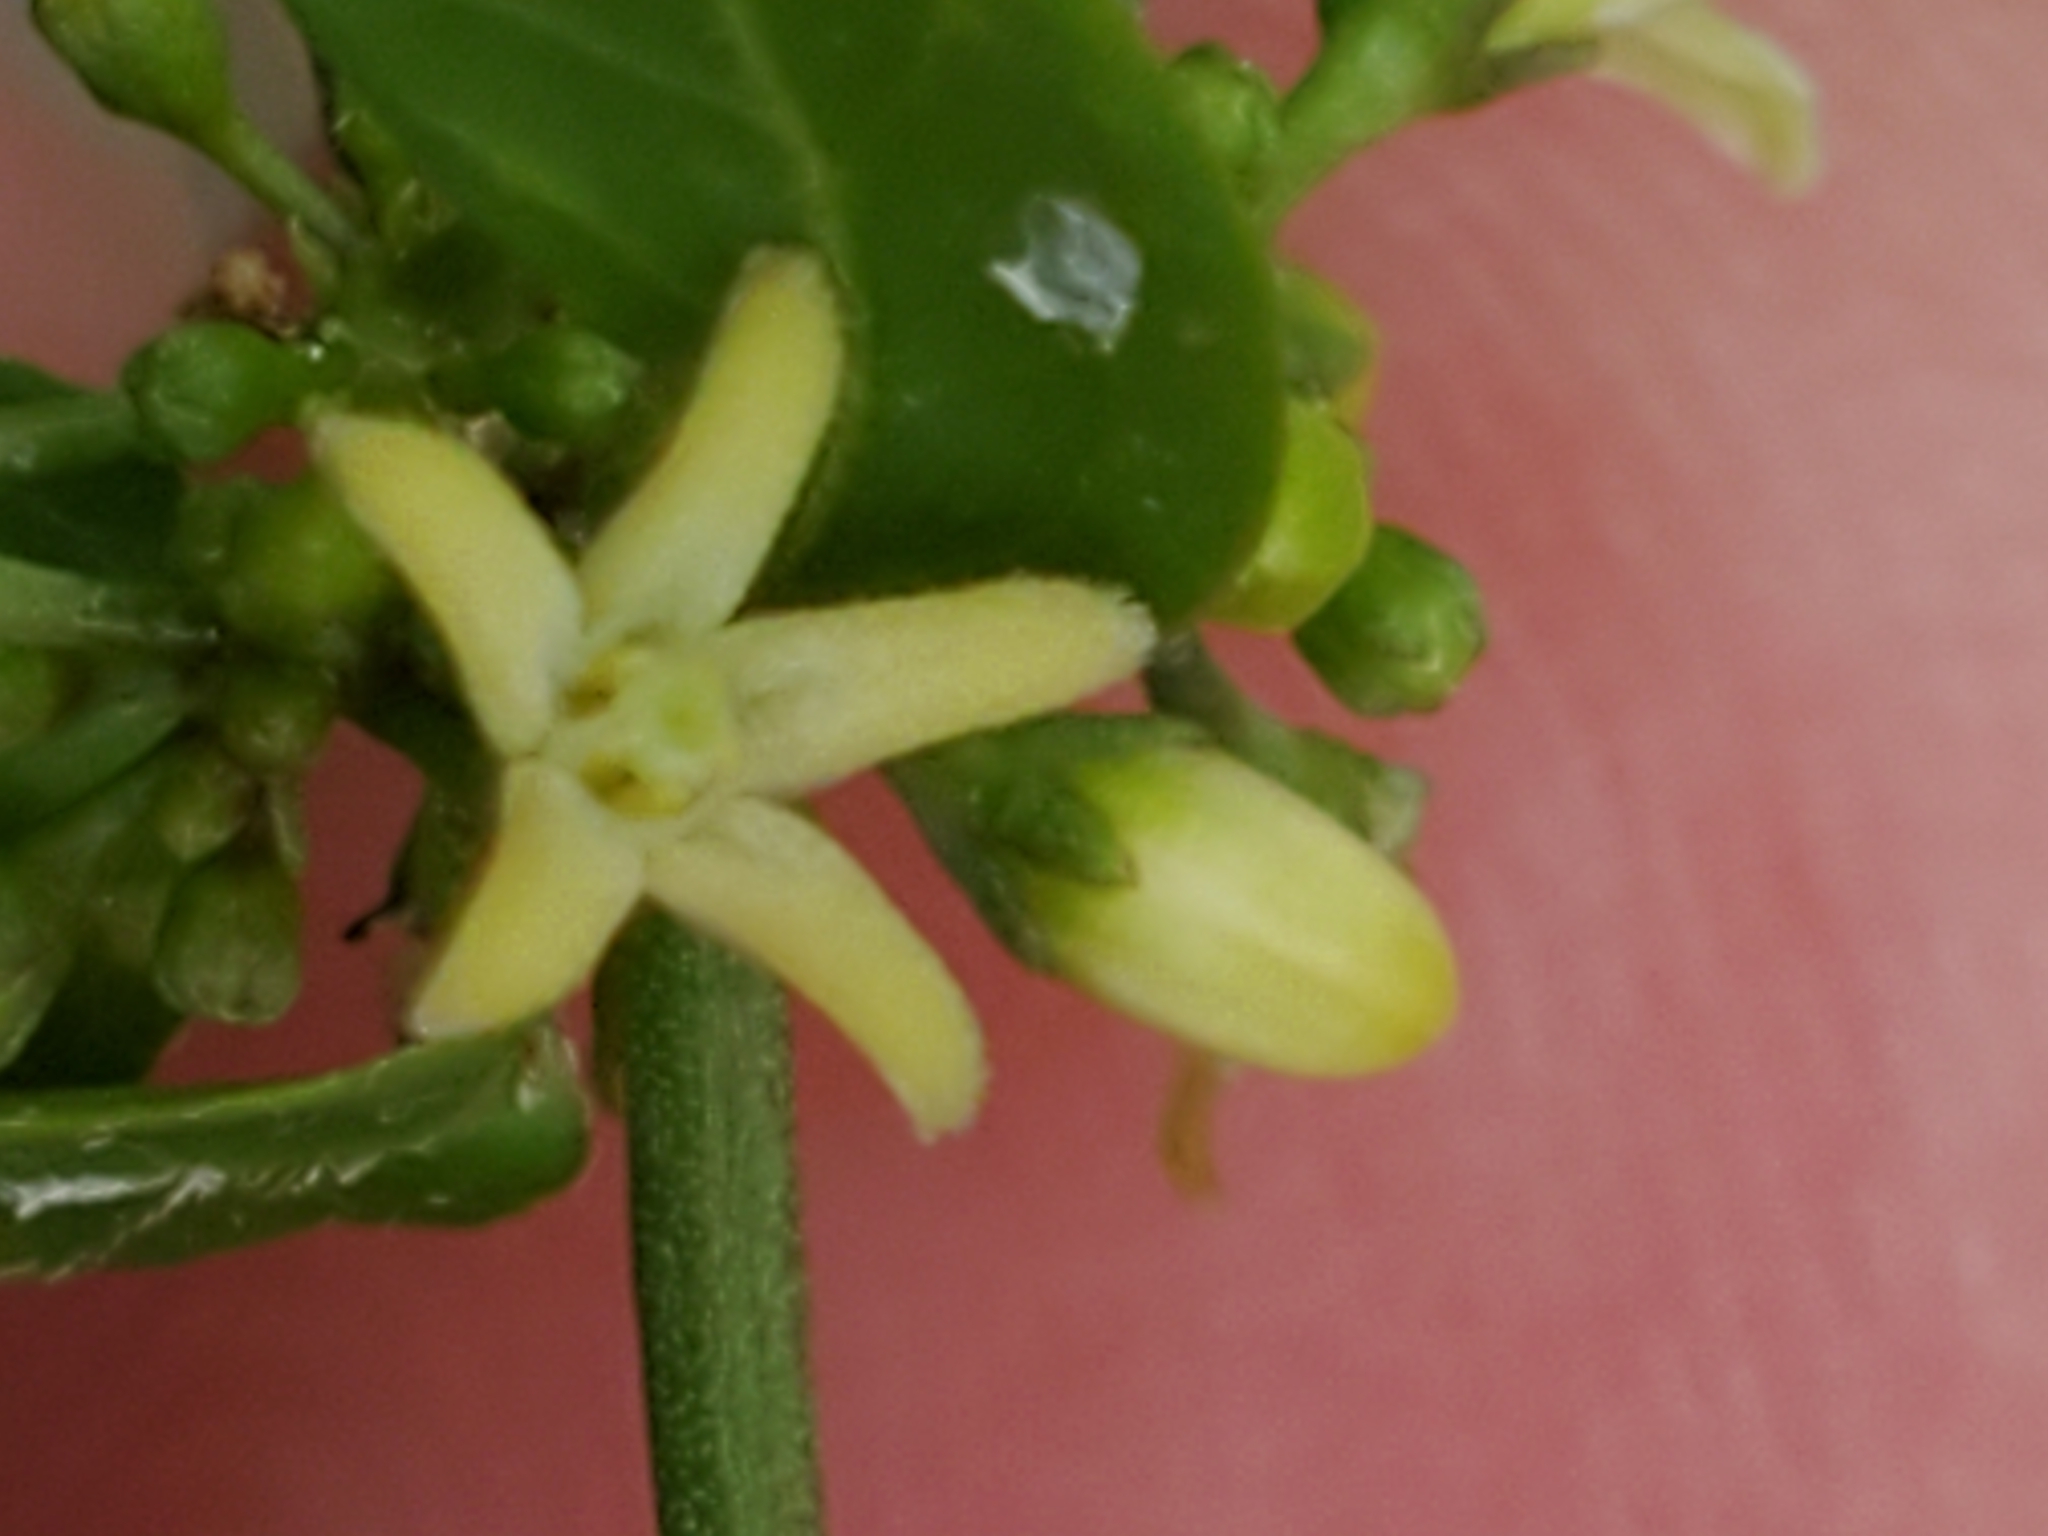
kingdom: Plantae
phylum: Tracheophyta
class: Magnoliopsida
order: Gentianales
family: Apocynaceae
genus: Metastelma
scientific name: Metastelma palmeri
